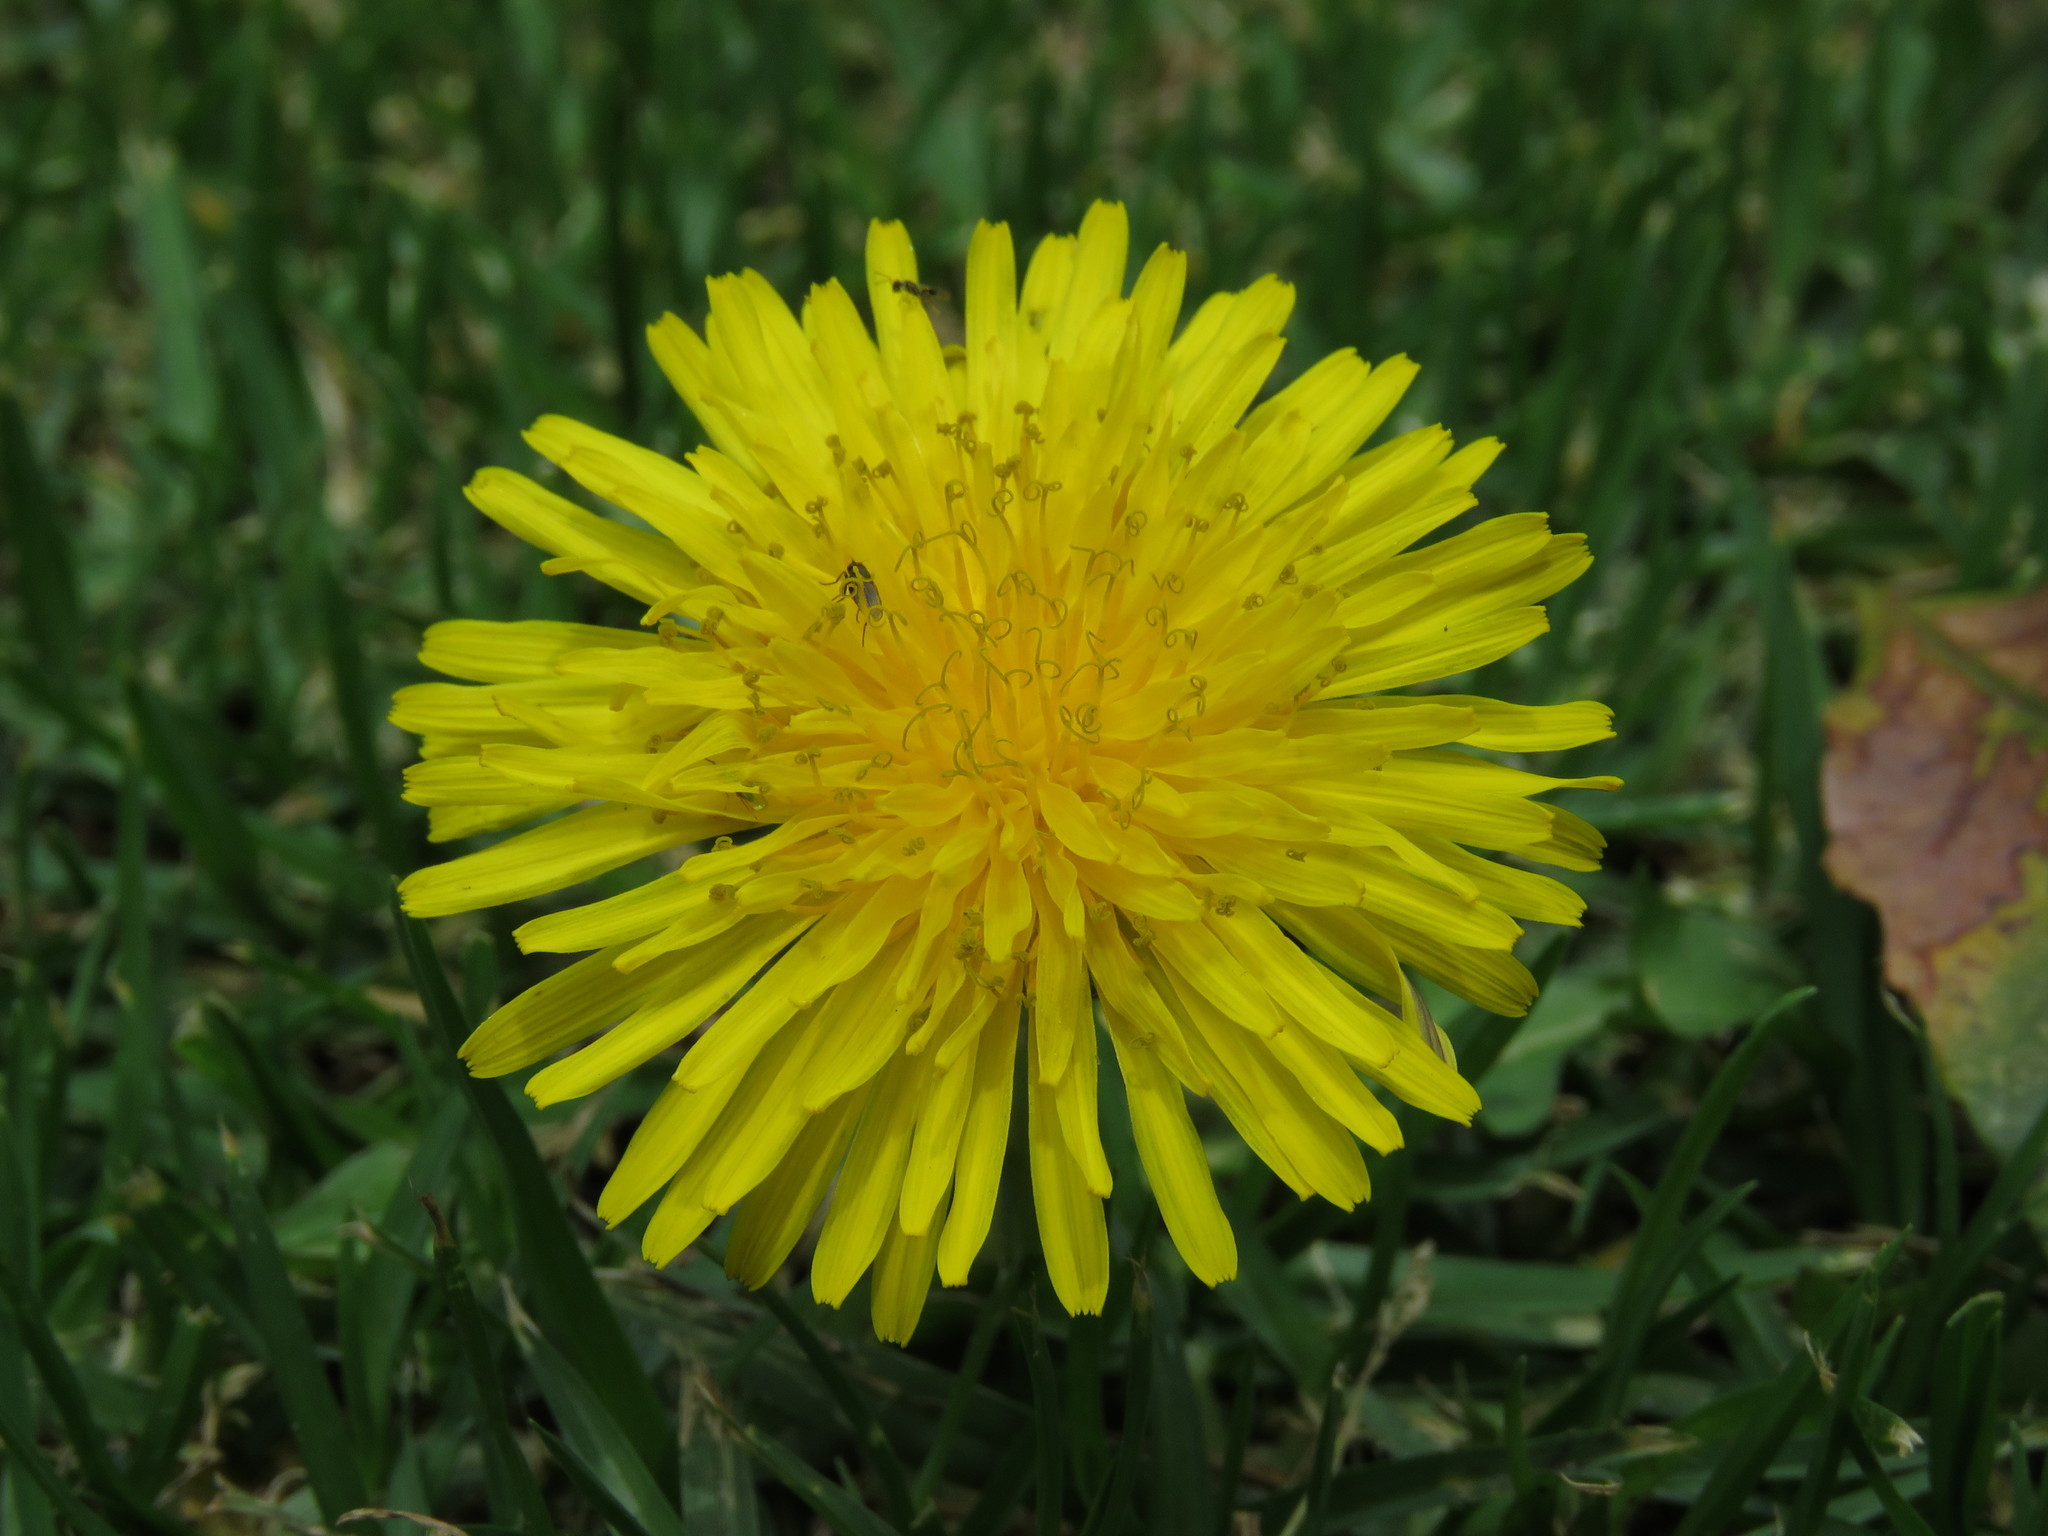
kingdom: Plantae
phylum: Tracheophyta
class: Magnoliopsida
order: Asterales
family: Asteraceae
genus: Taraxacum
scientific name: Taraxacum officinale
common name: Common dandelion
